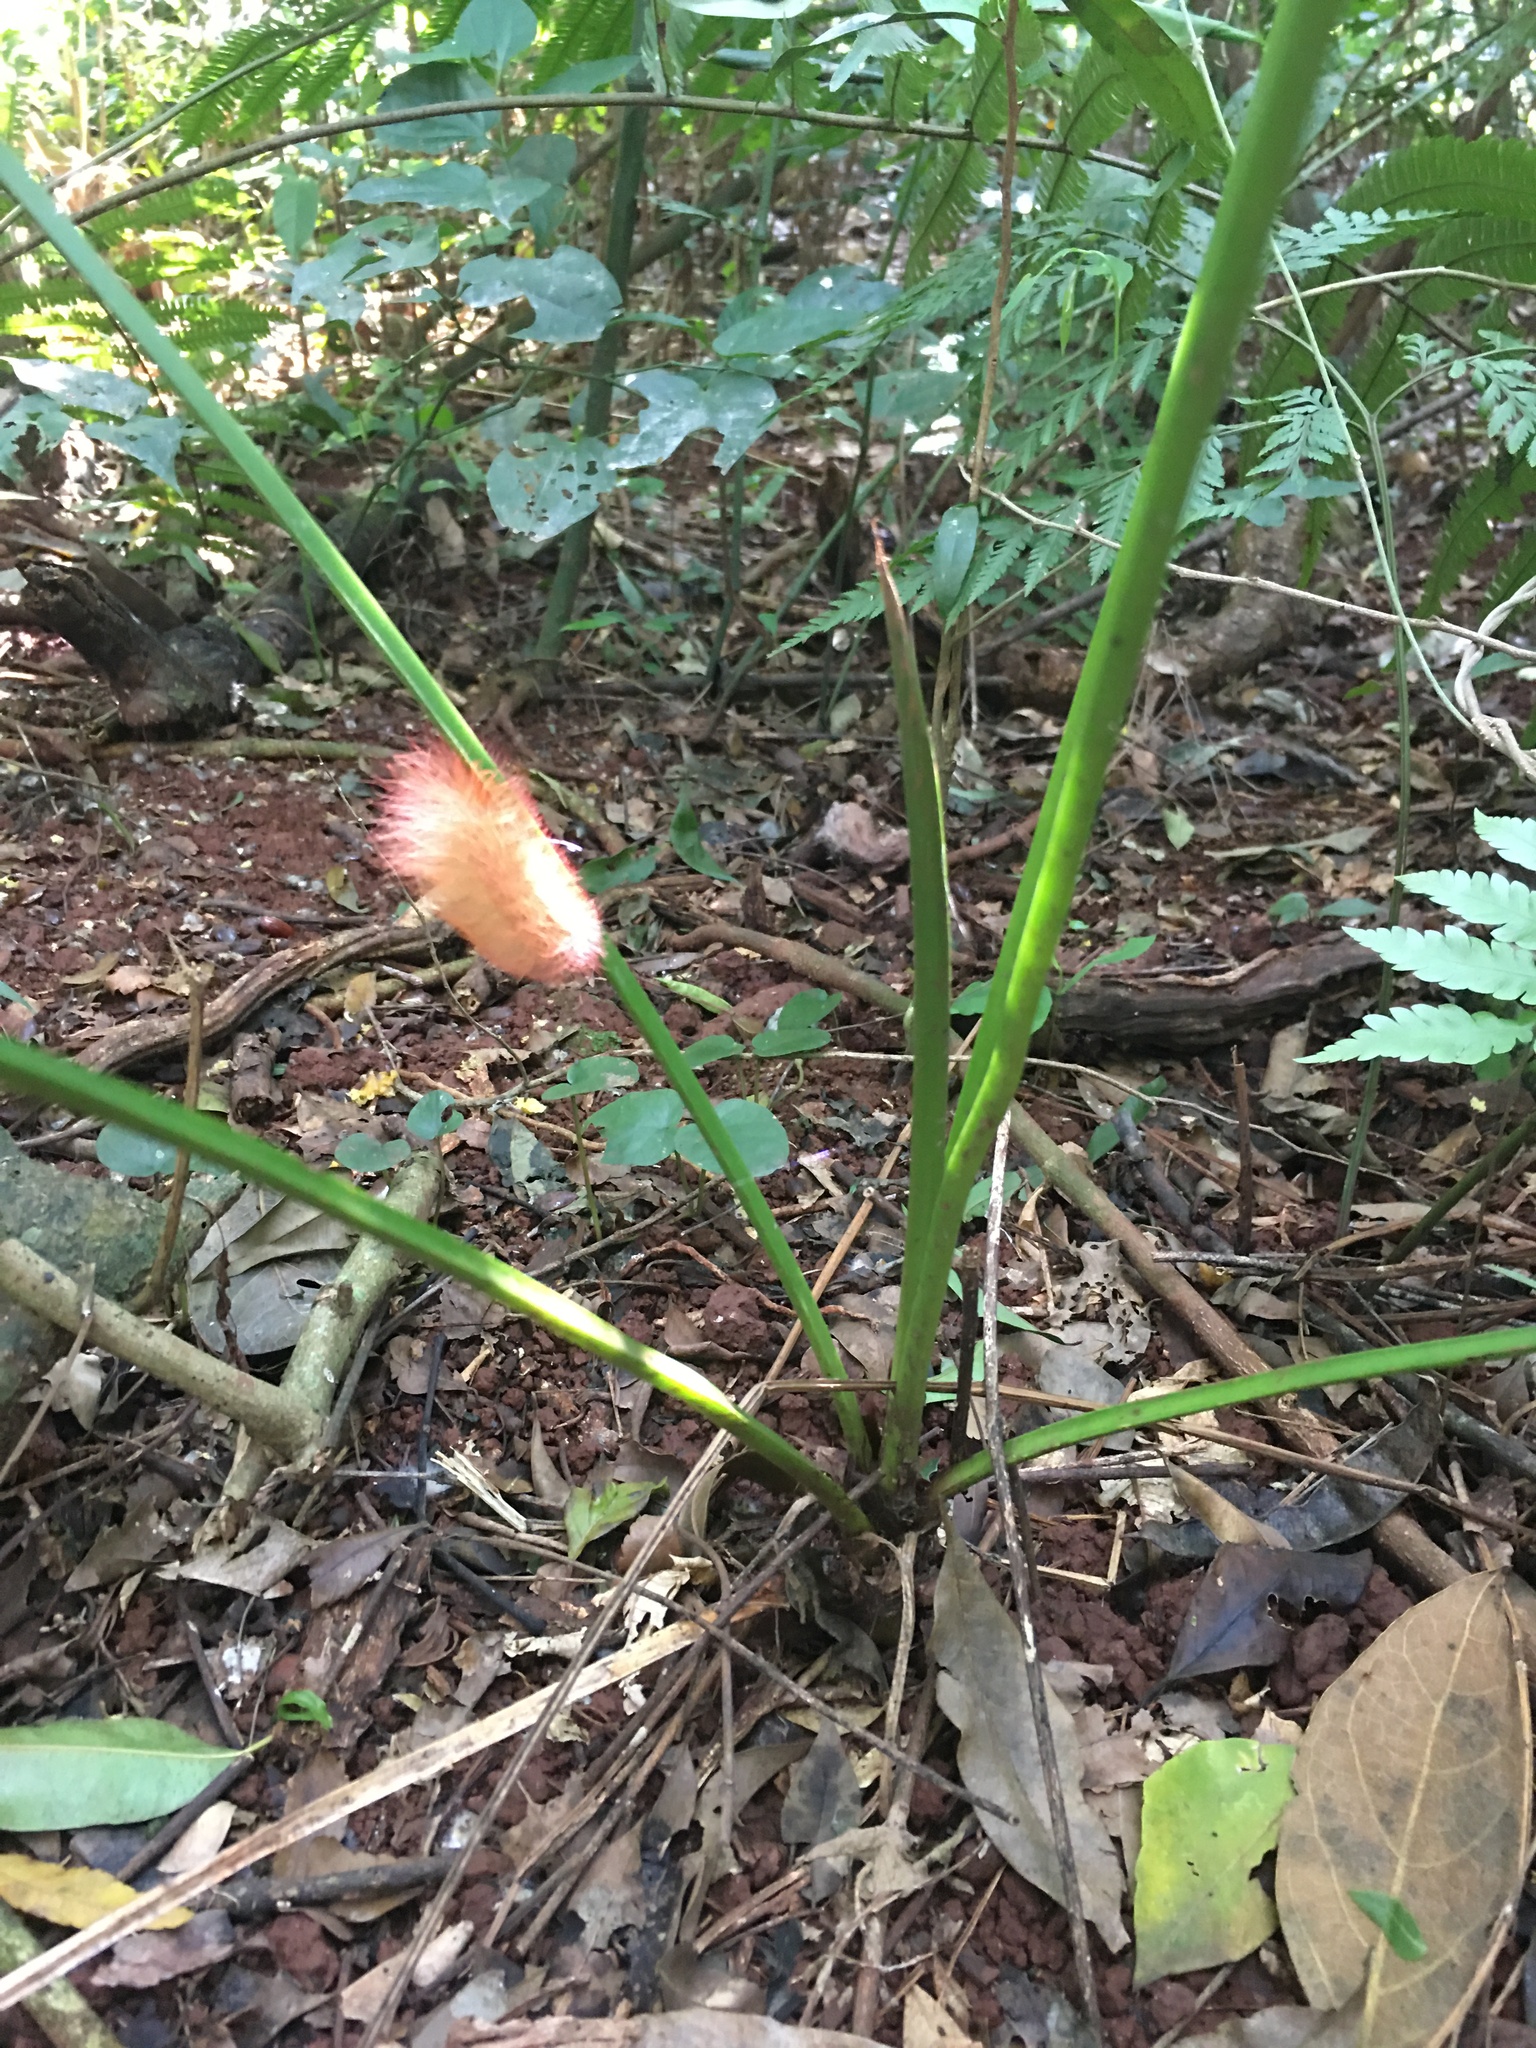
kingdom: Animalia
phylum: Arthropoda
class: Insecta
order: Lepidoptera
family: Megalopygidae
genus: Megalopyge
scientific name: Megalopyge albicollis
